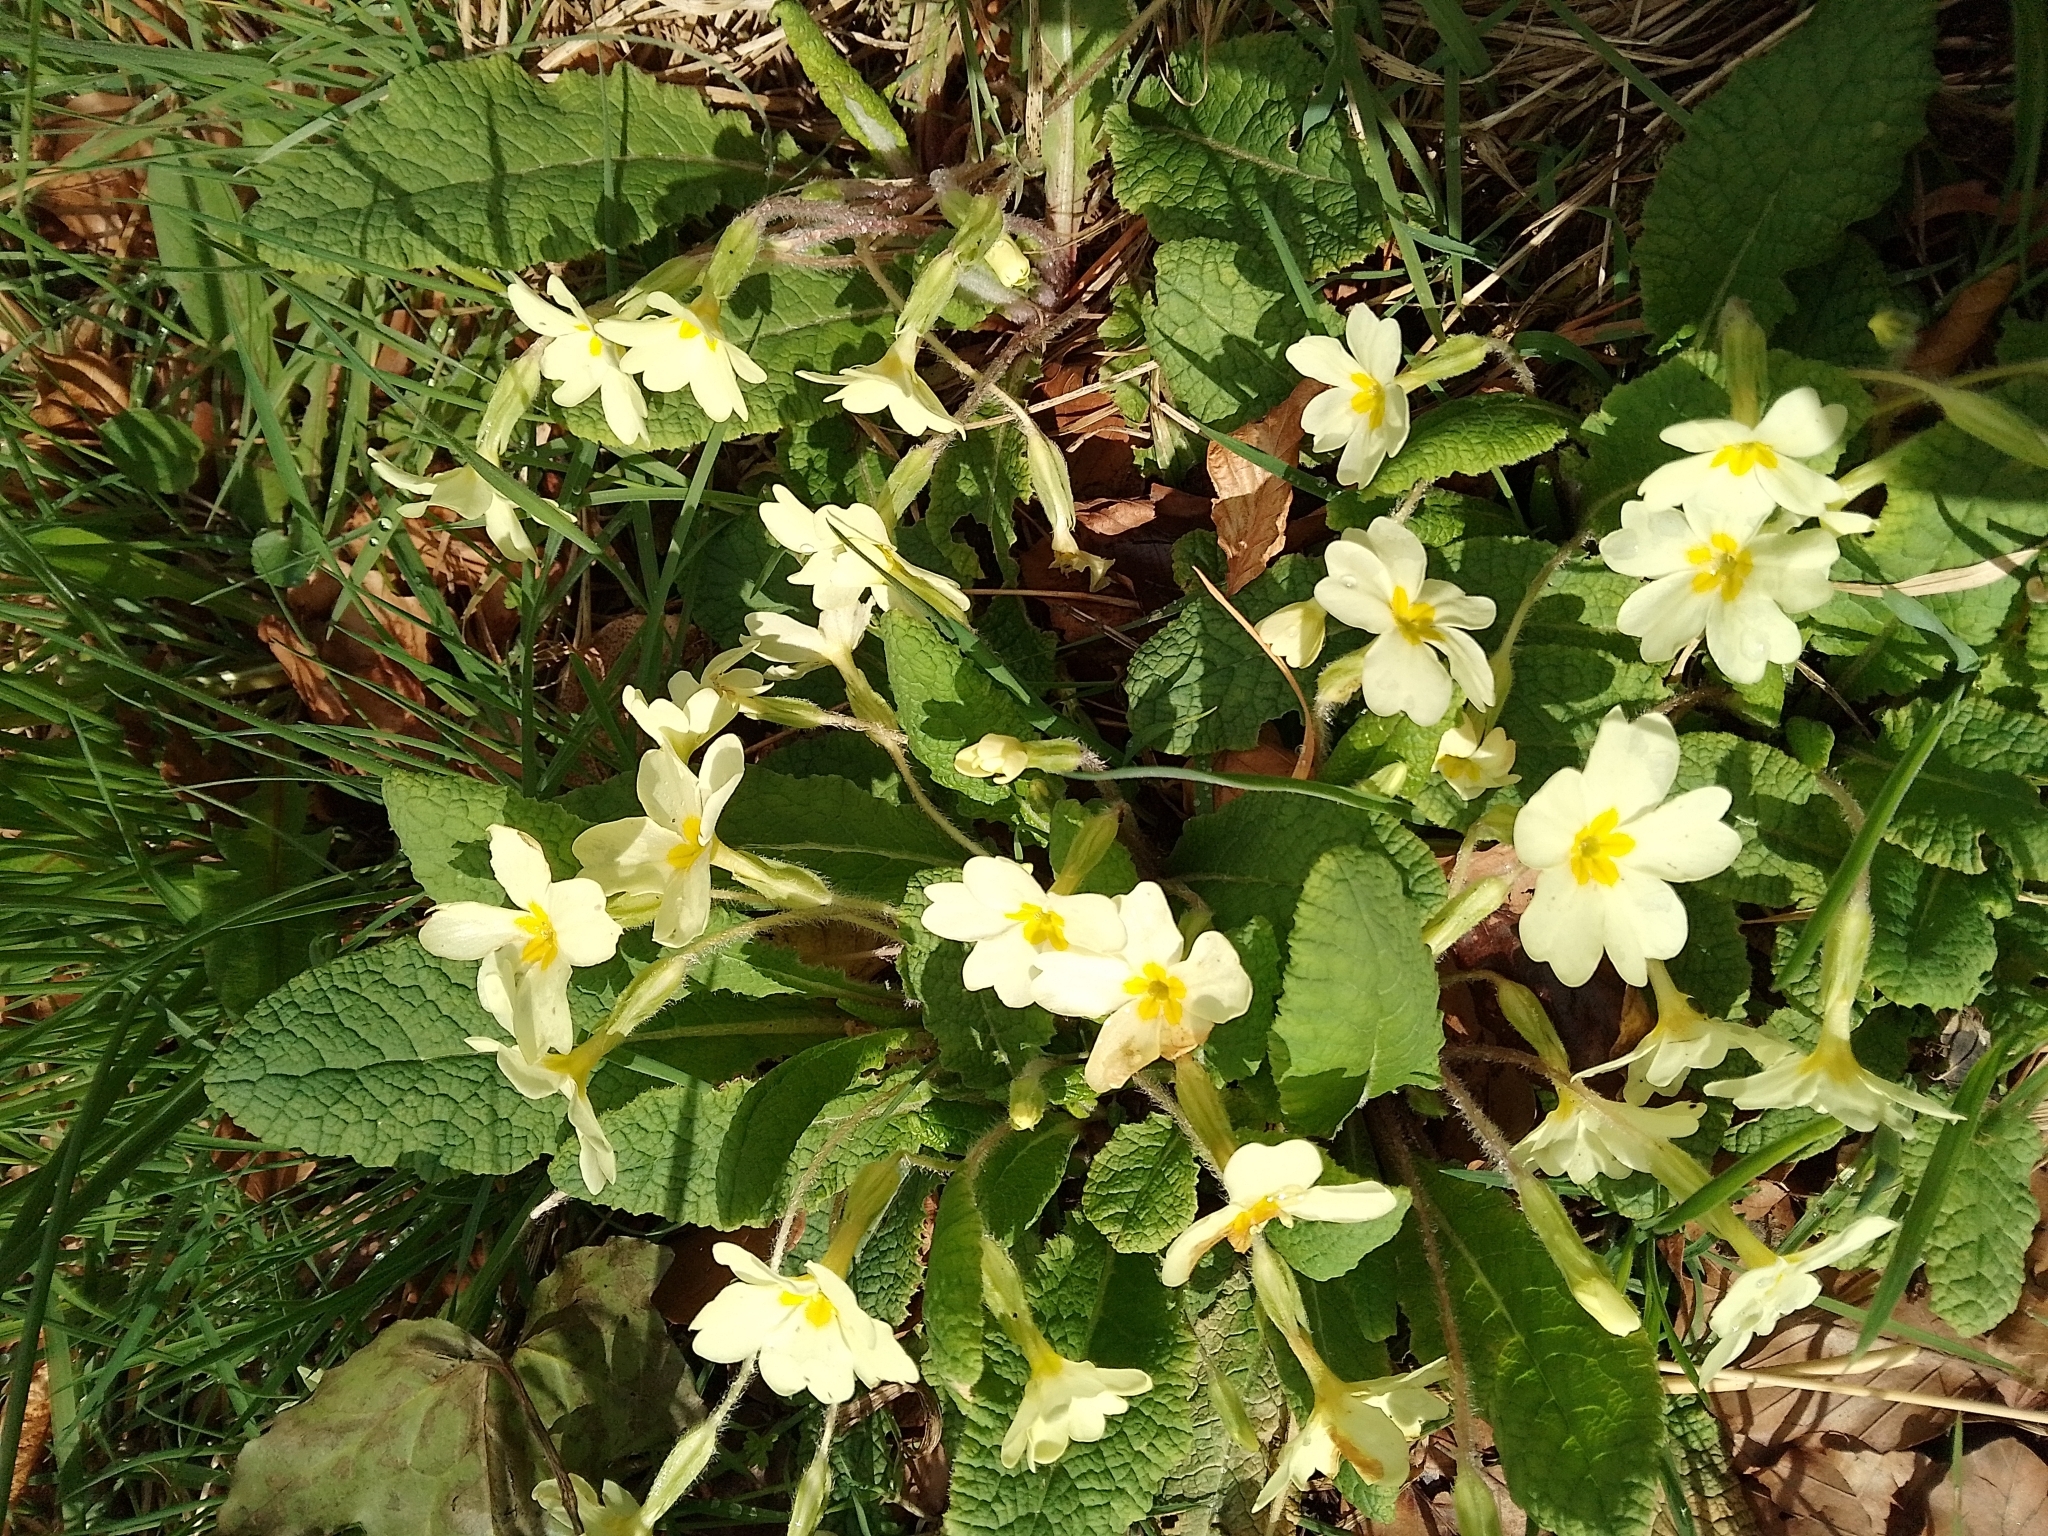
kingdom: Plantae
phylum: Tracheophyta
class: Magnoliopsida
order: Ericales
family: Primulaceae
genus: Primula
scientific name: Primula vulgaris
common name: Primrose
